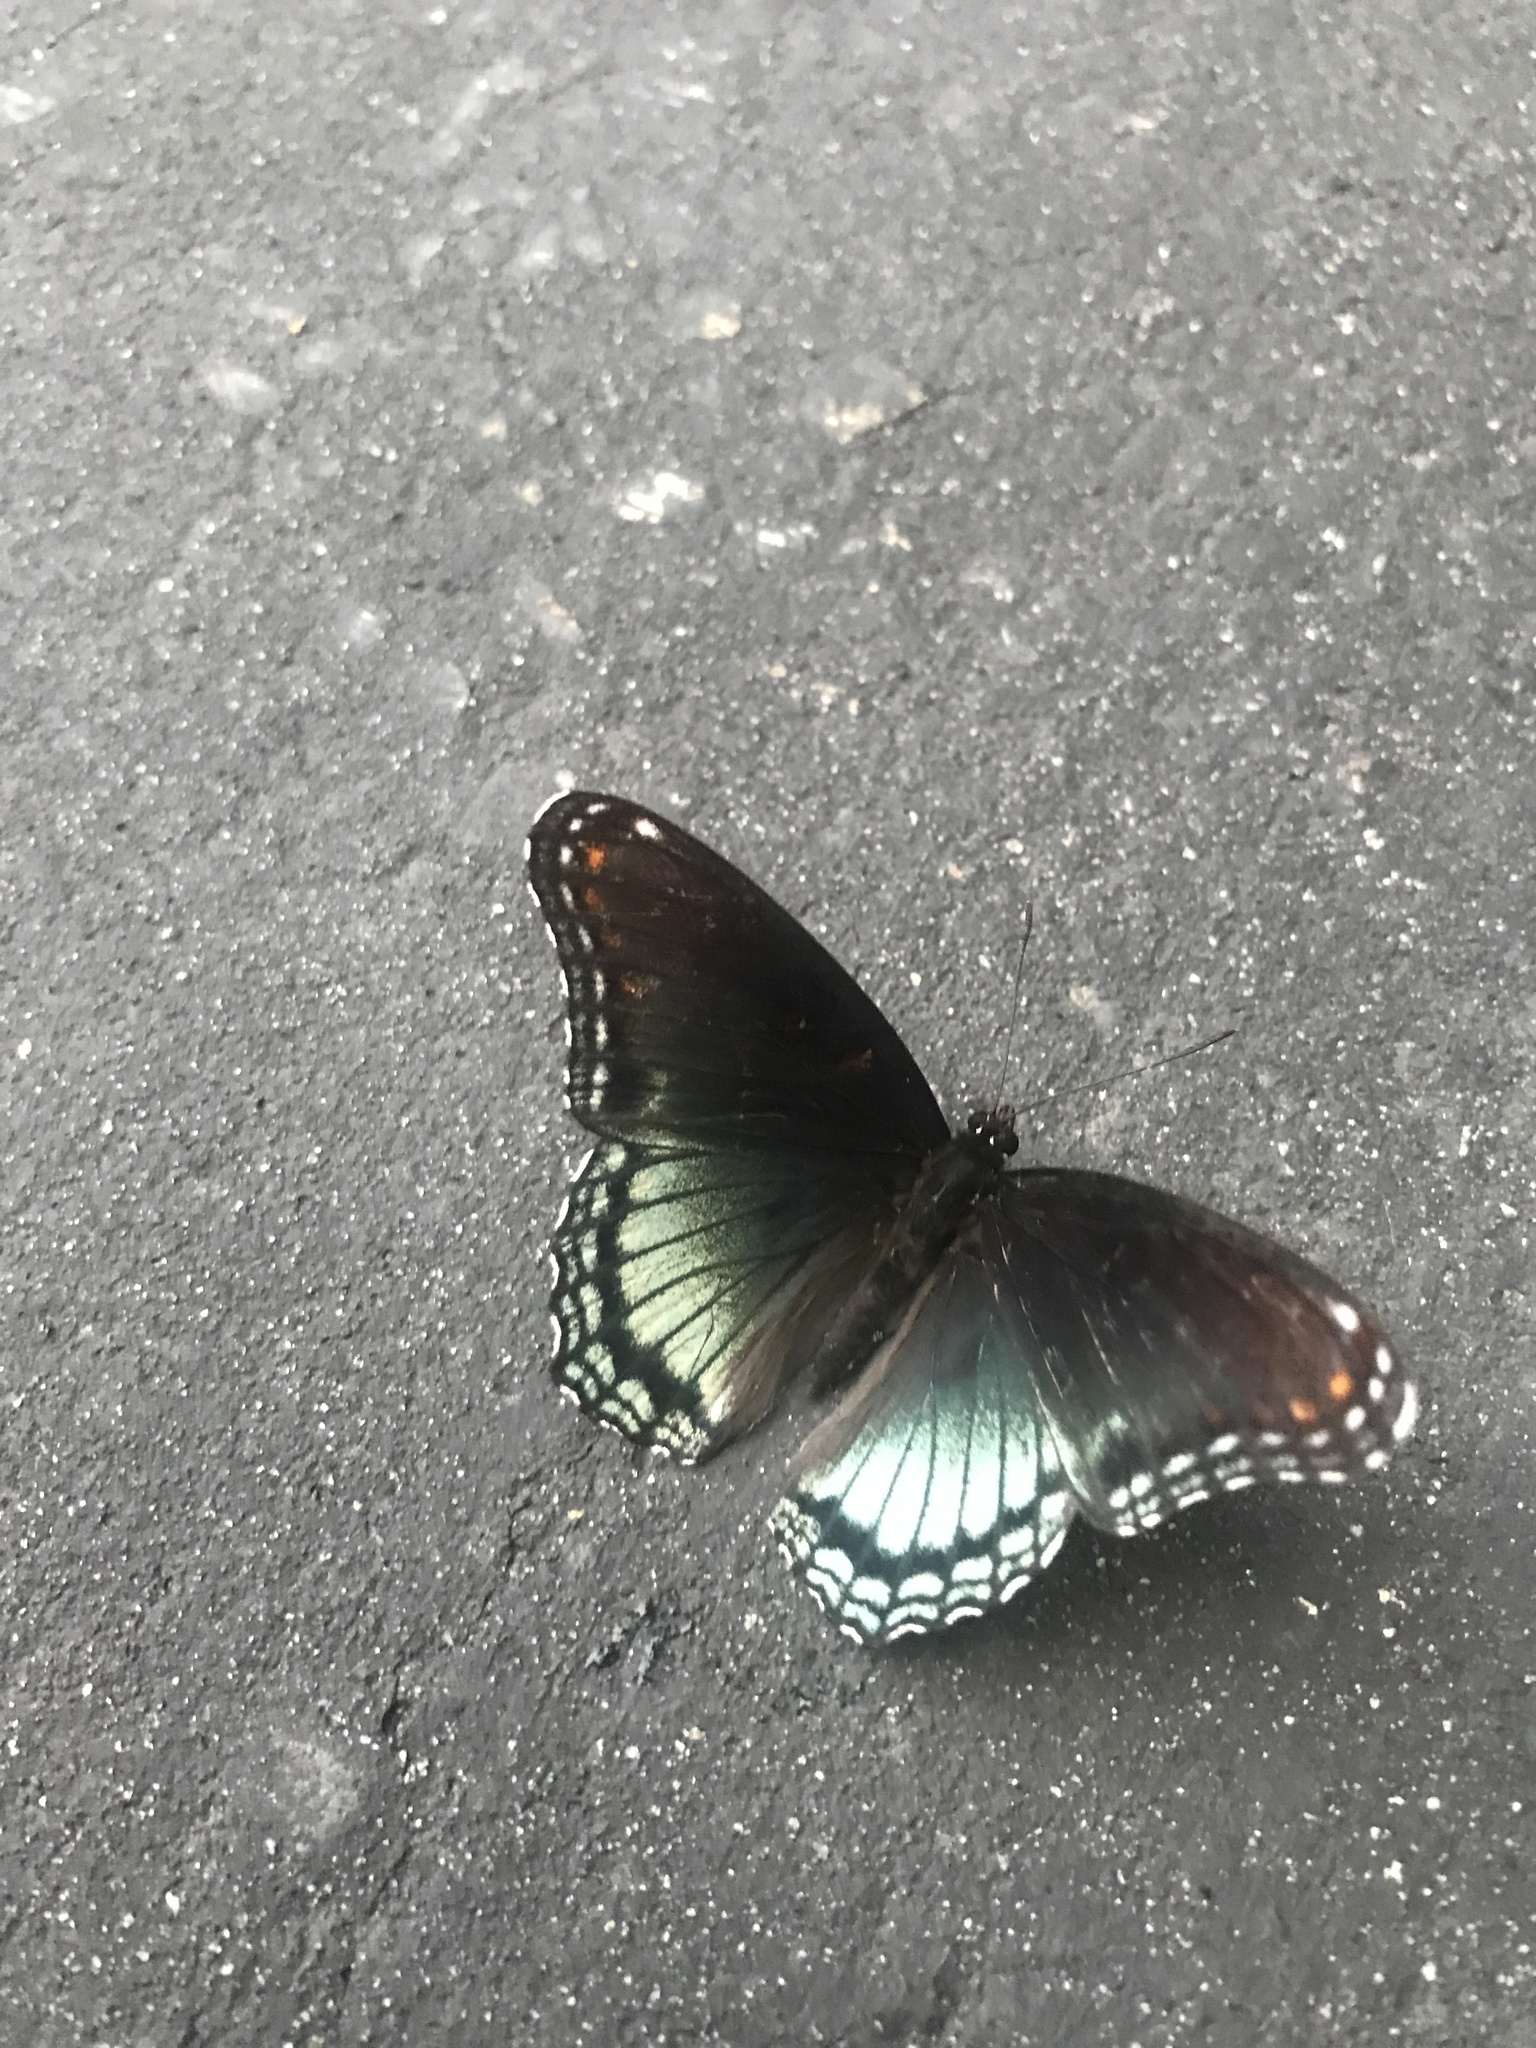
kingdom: Animalia
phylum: Arthropoda
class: Insecta
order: Lepidoptera
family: Nymphalidae
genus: Limenitis
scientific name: Limenitis astyanax
